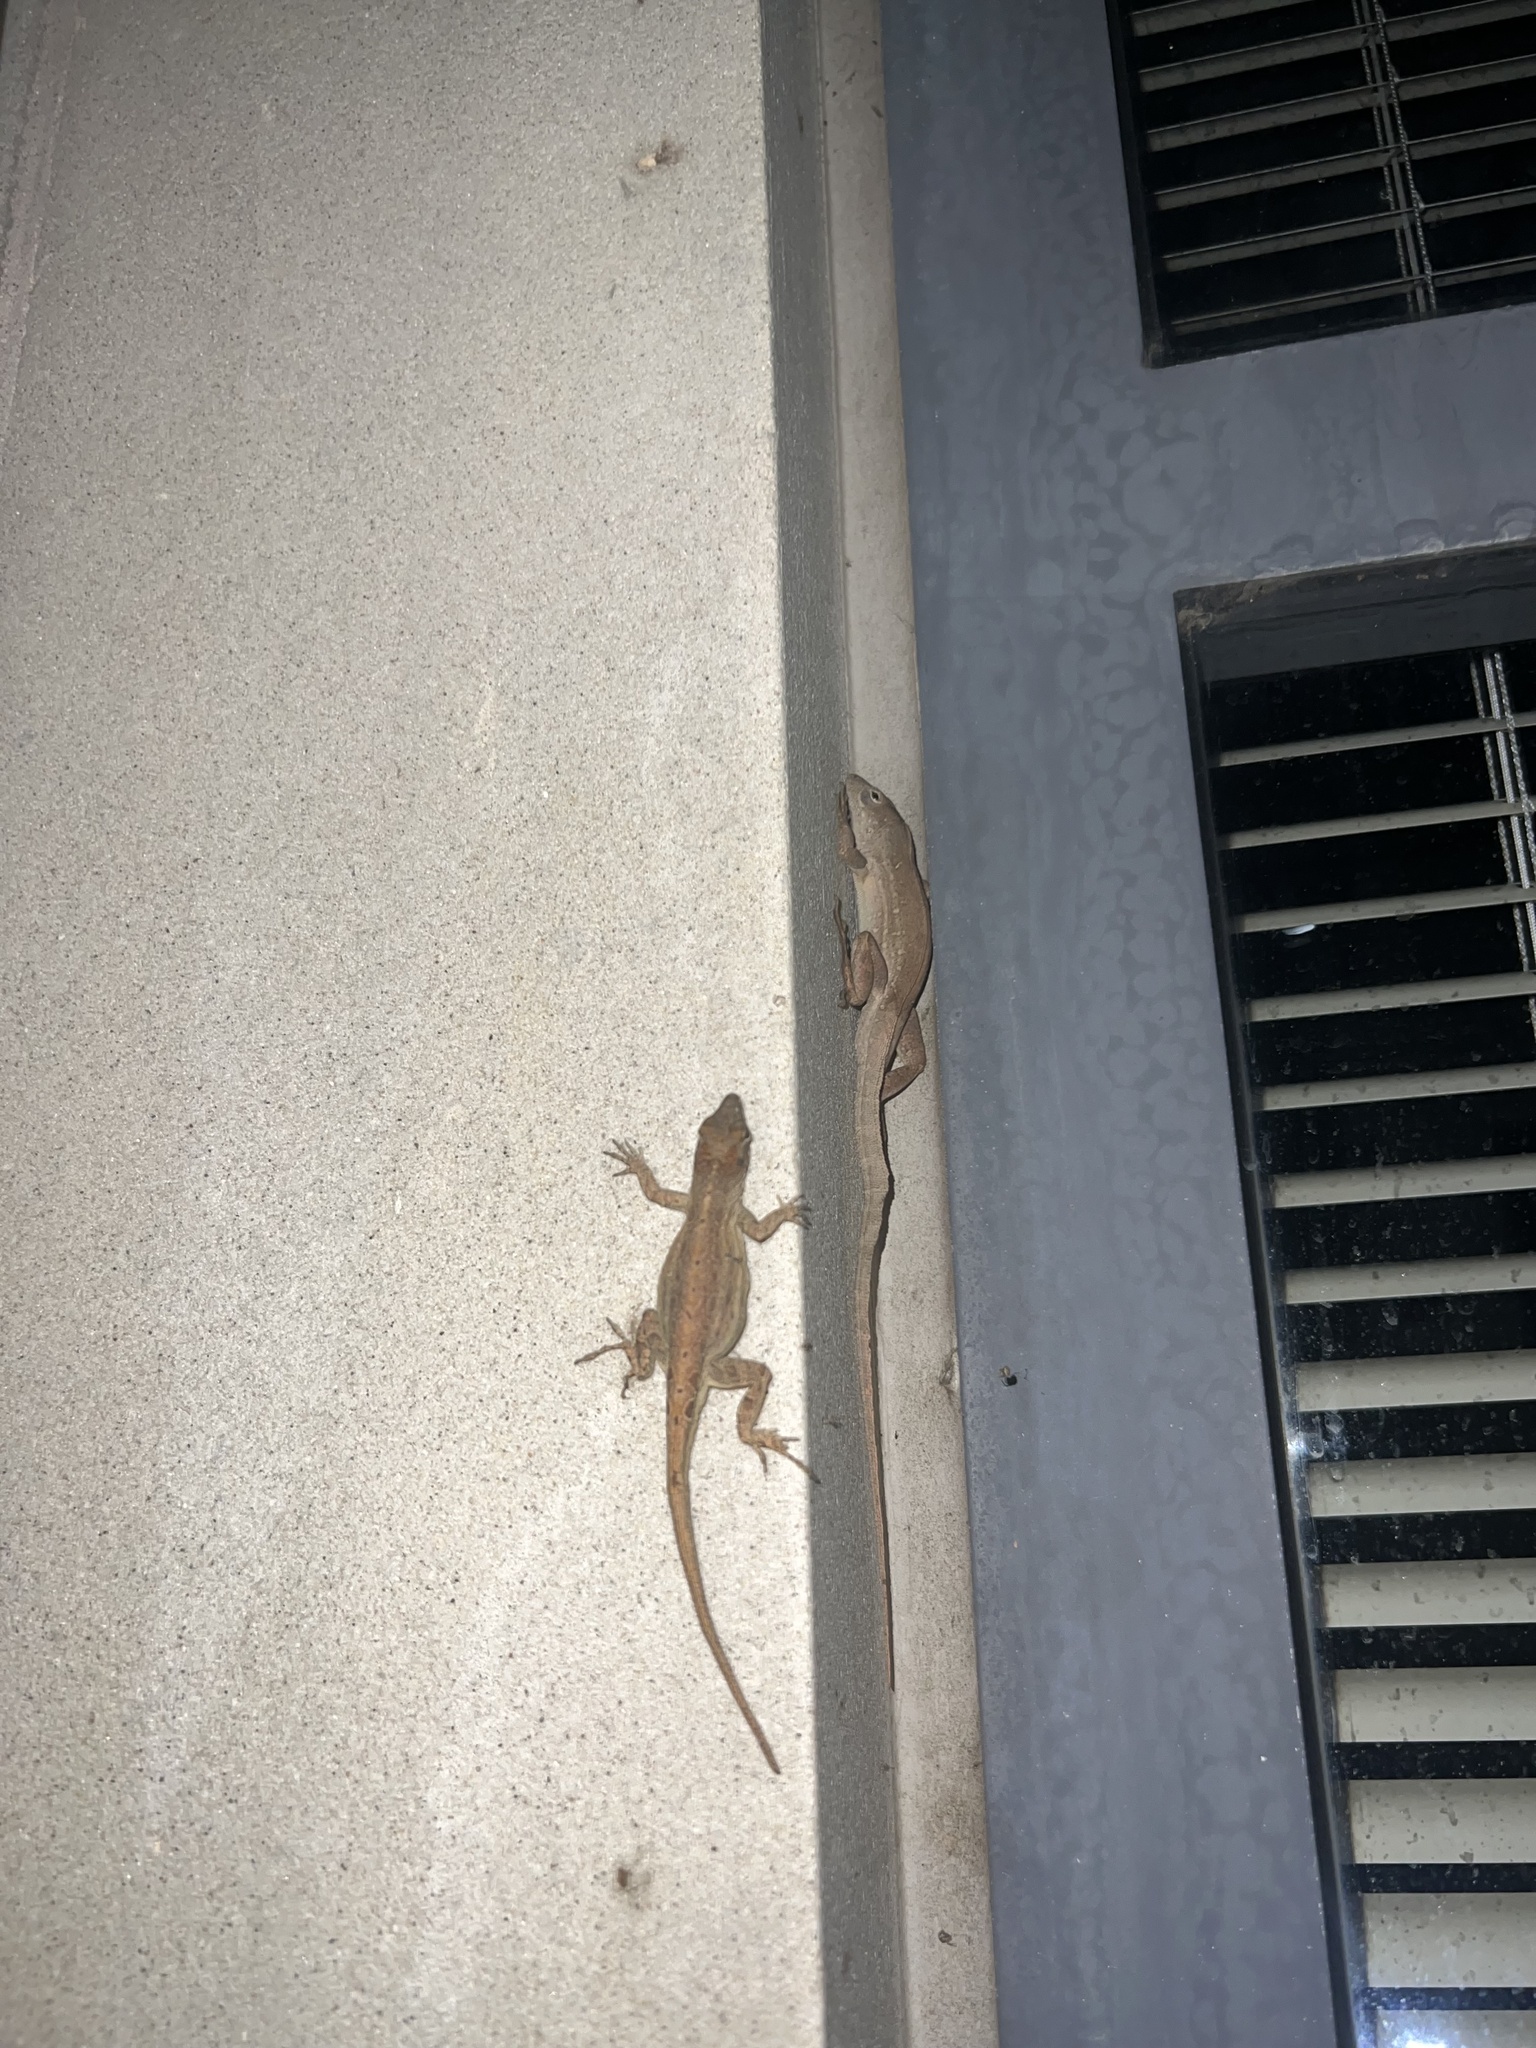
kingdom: Animalia
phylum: Chordata
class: Squamata
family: Dactyloidae
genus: Anolis
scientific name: Anolis sagrei
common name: Brown anole
